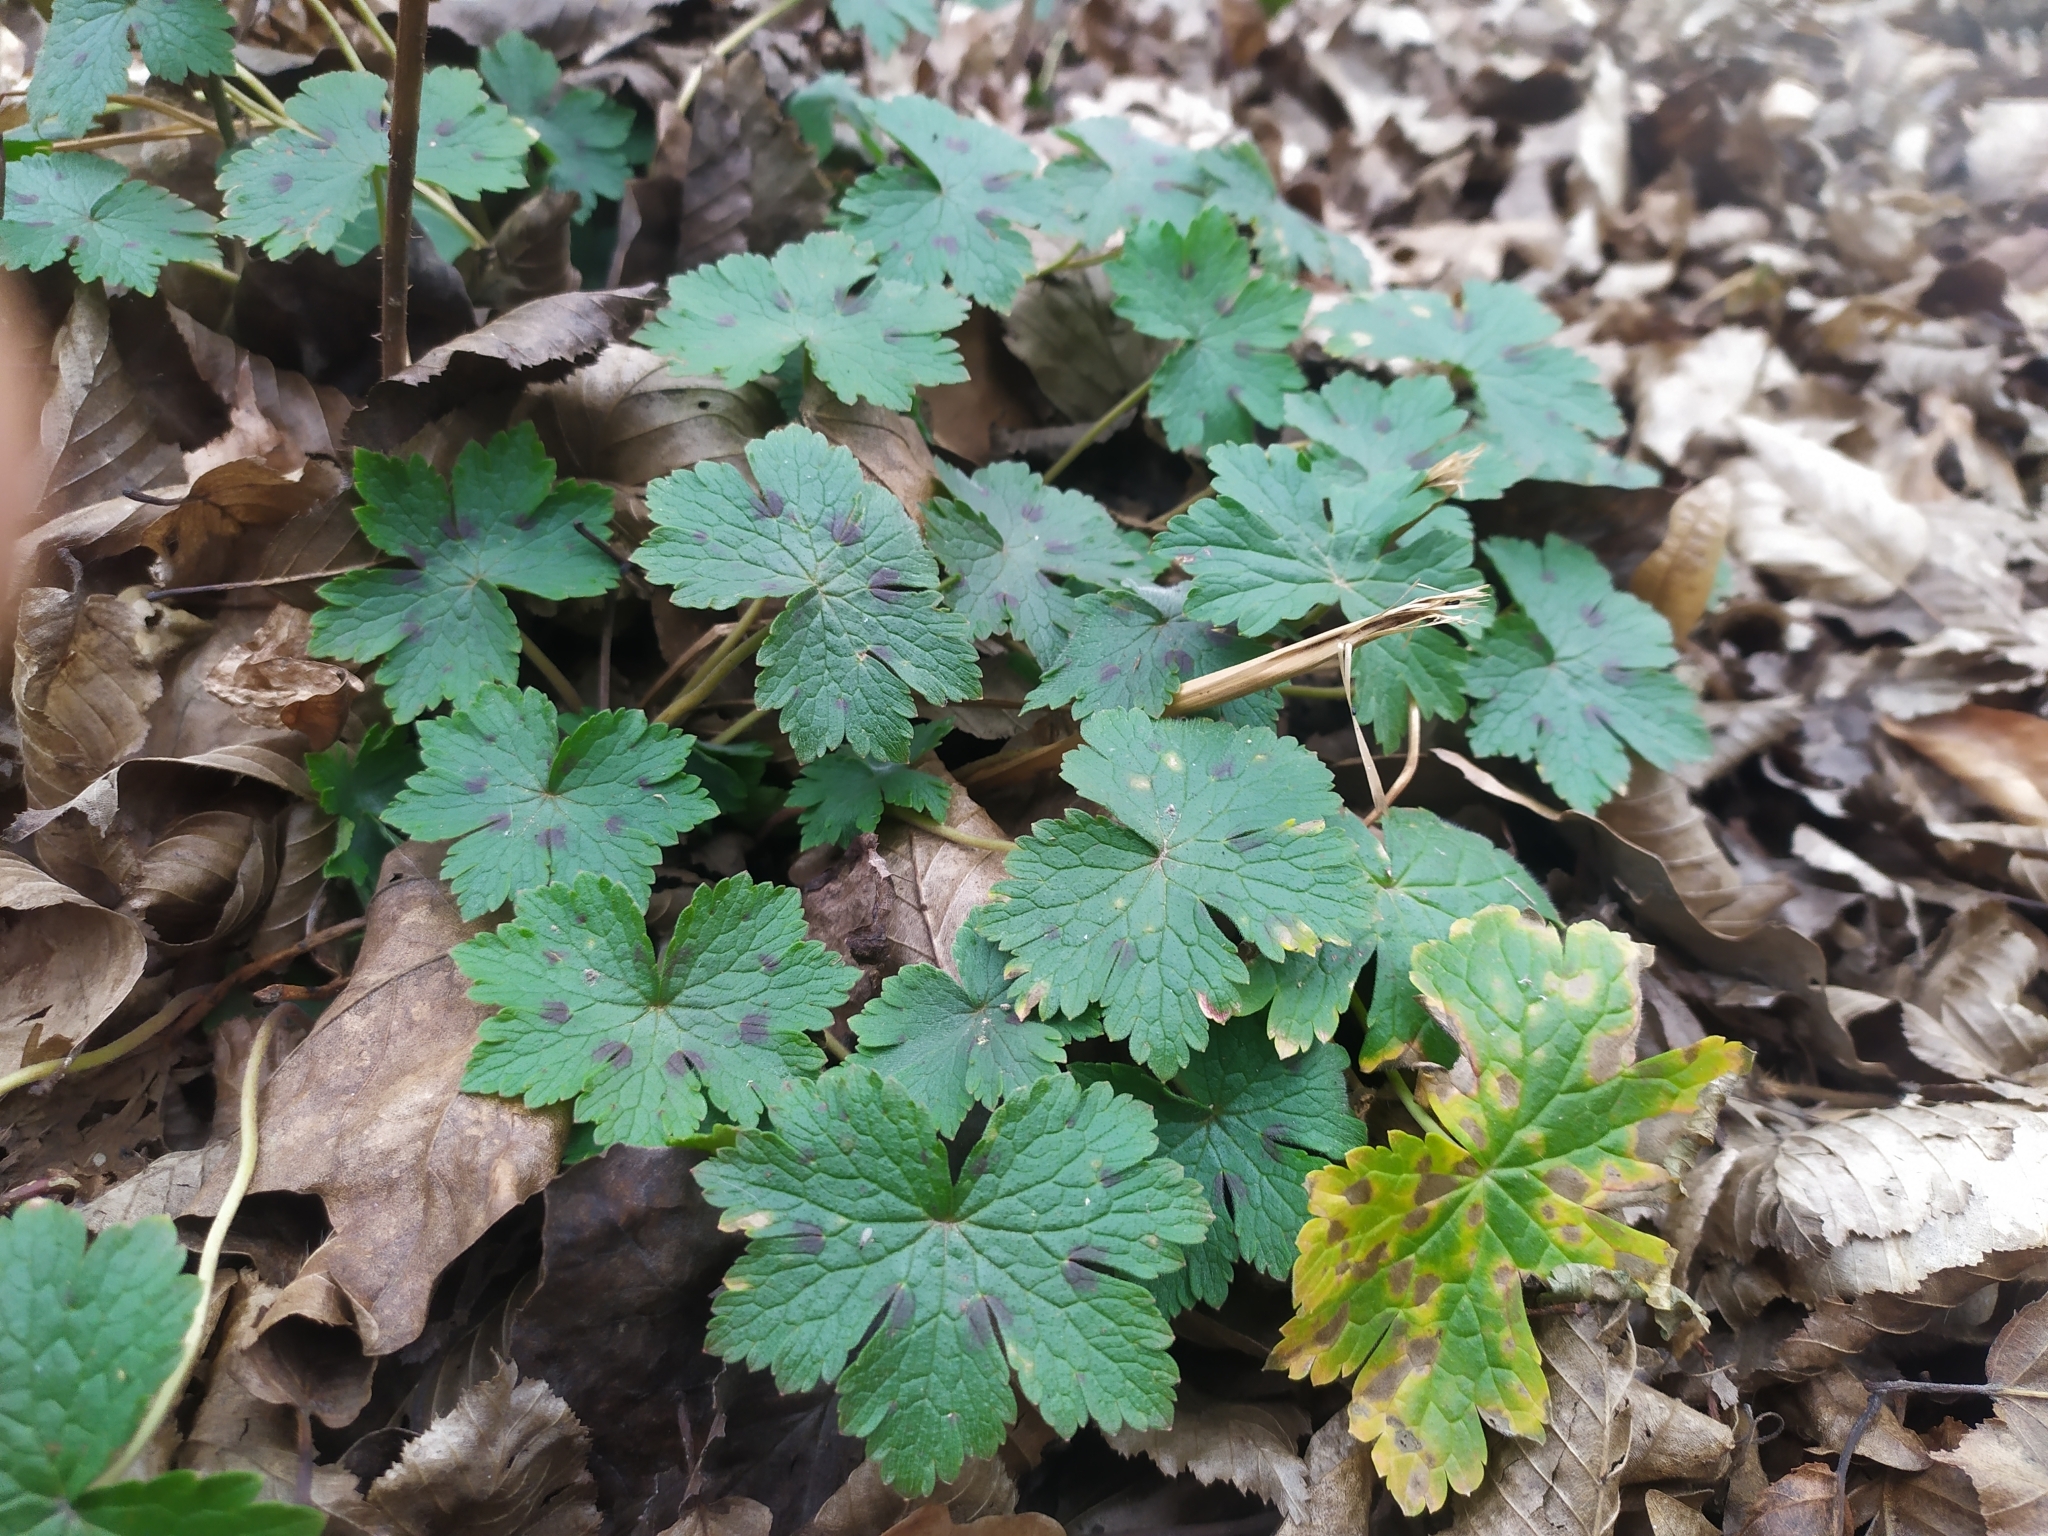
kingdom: Plantae
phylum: Tracheophyta
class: Magnoliopsida
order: Geraniales
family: Geraniaceae
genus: Geranium
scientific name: Geranium phaeum
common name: Dusky crane's-bill
